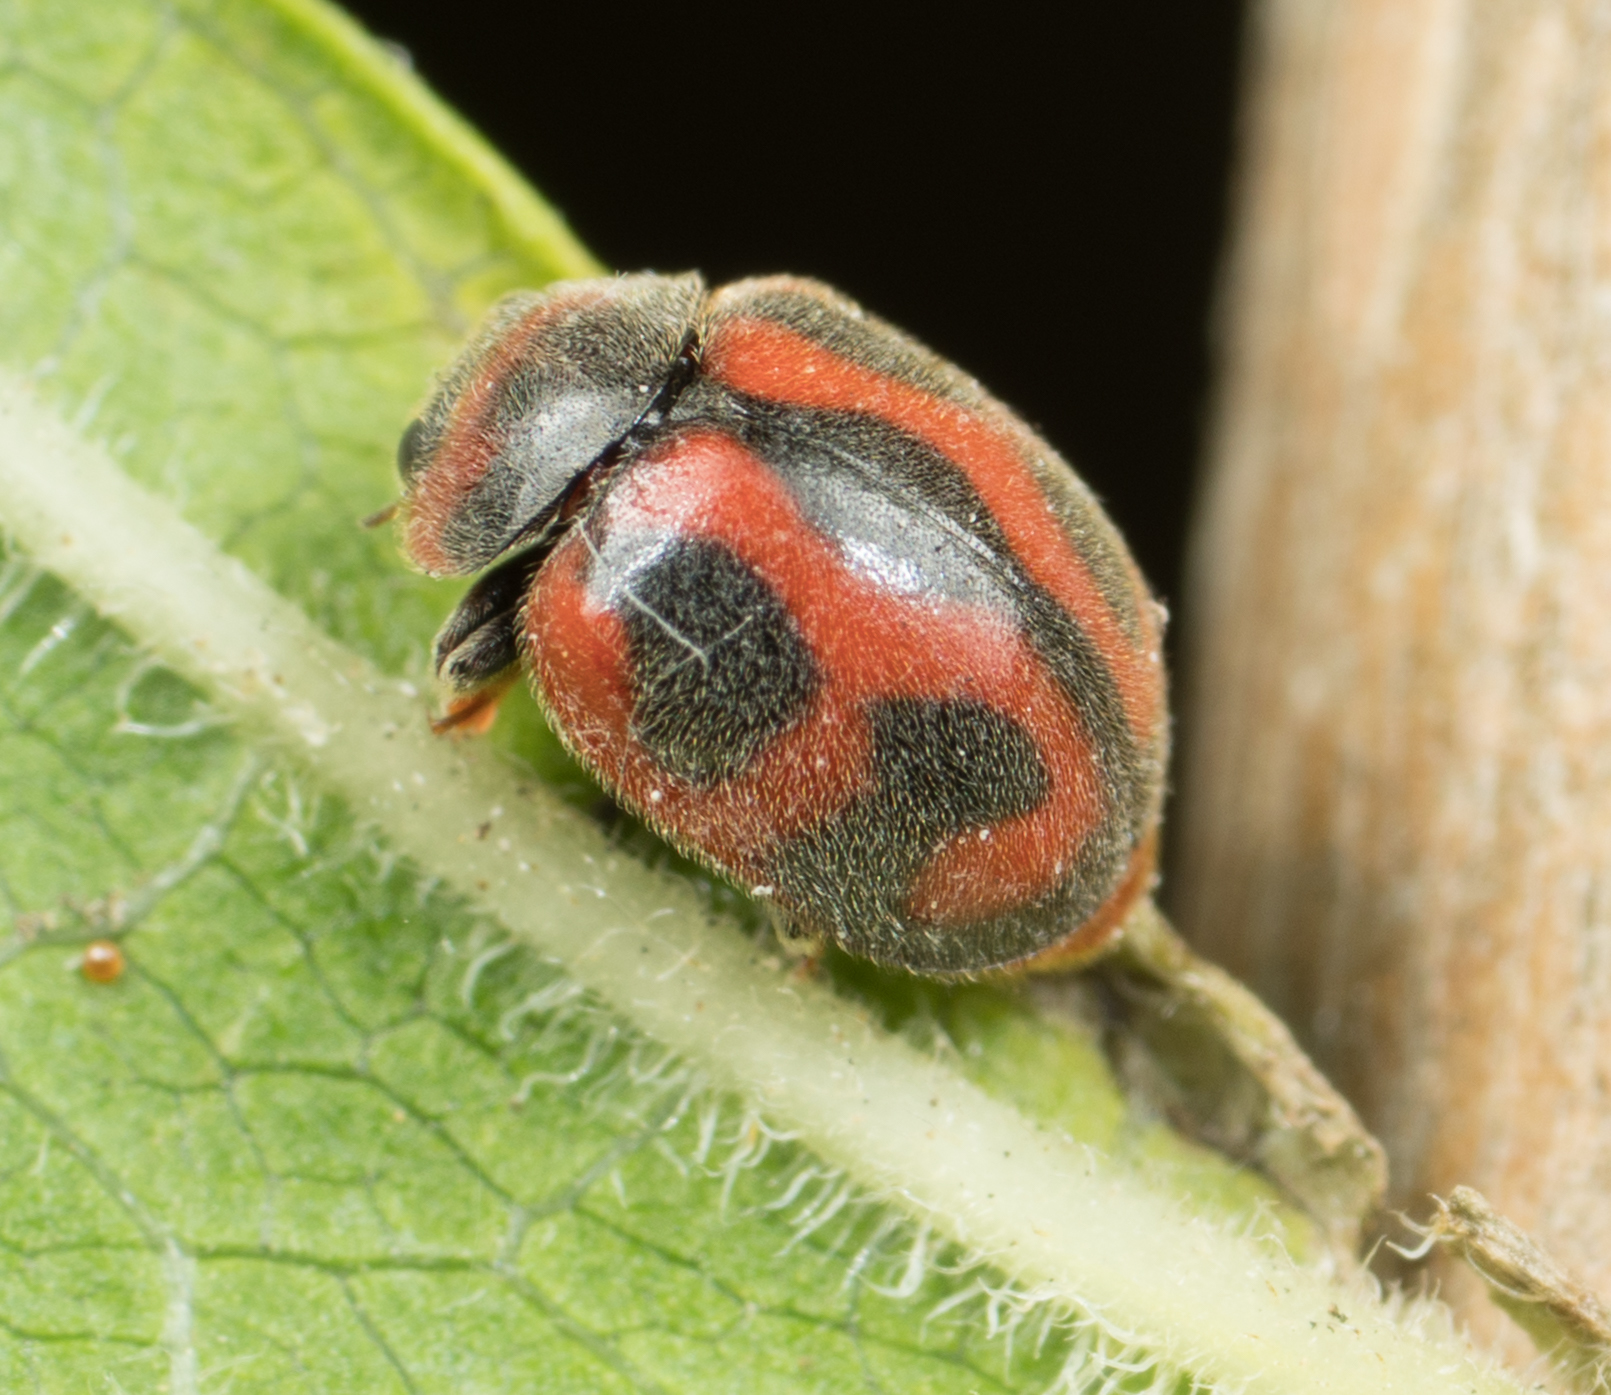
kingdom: Animalia
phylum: Arthropoda
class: Insecta
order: Coleoptera
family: Coccinellidae
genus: Novius
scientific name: Novius cardinalis
